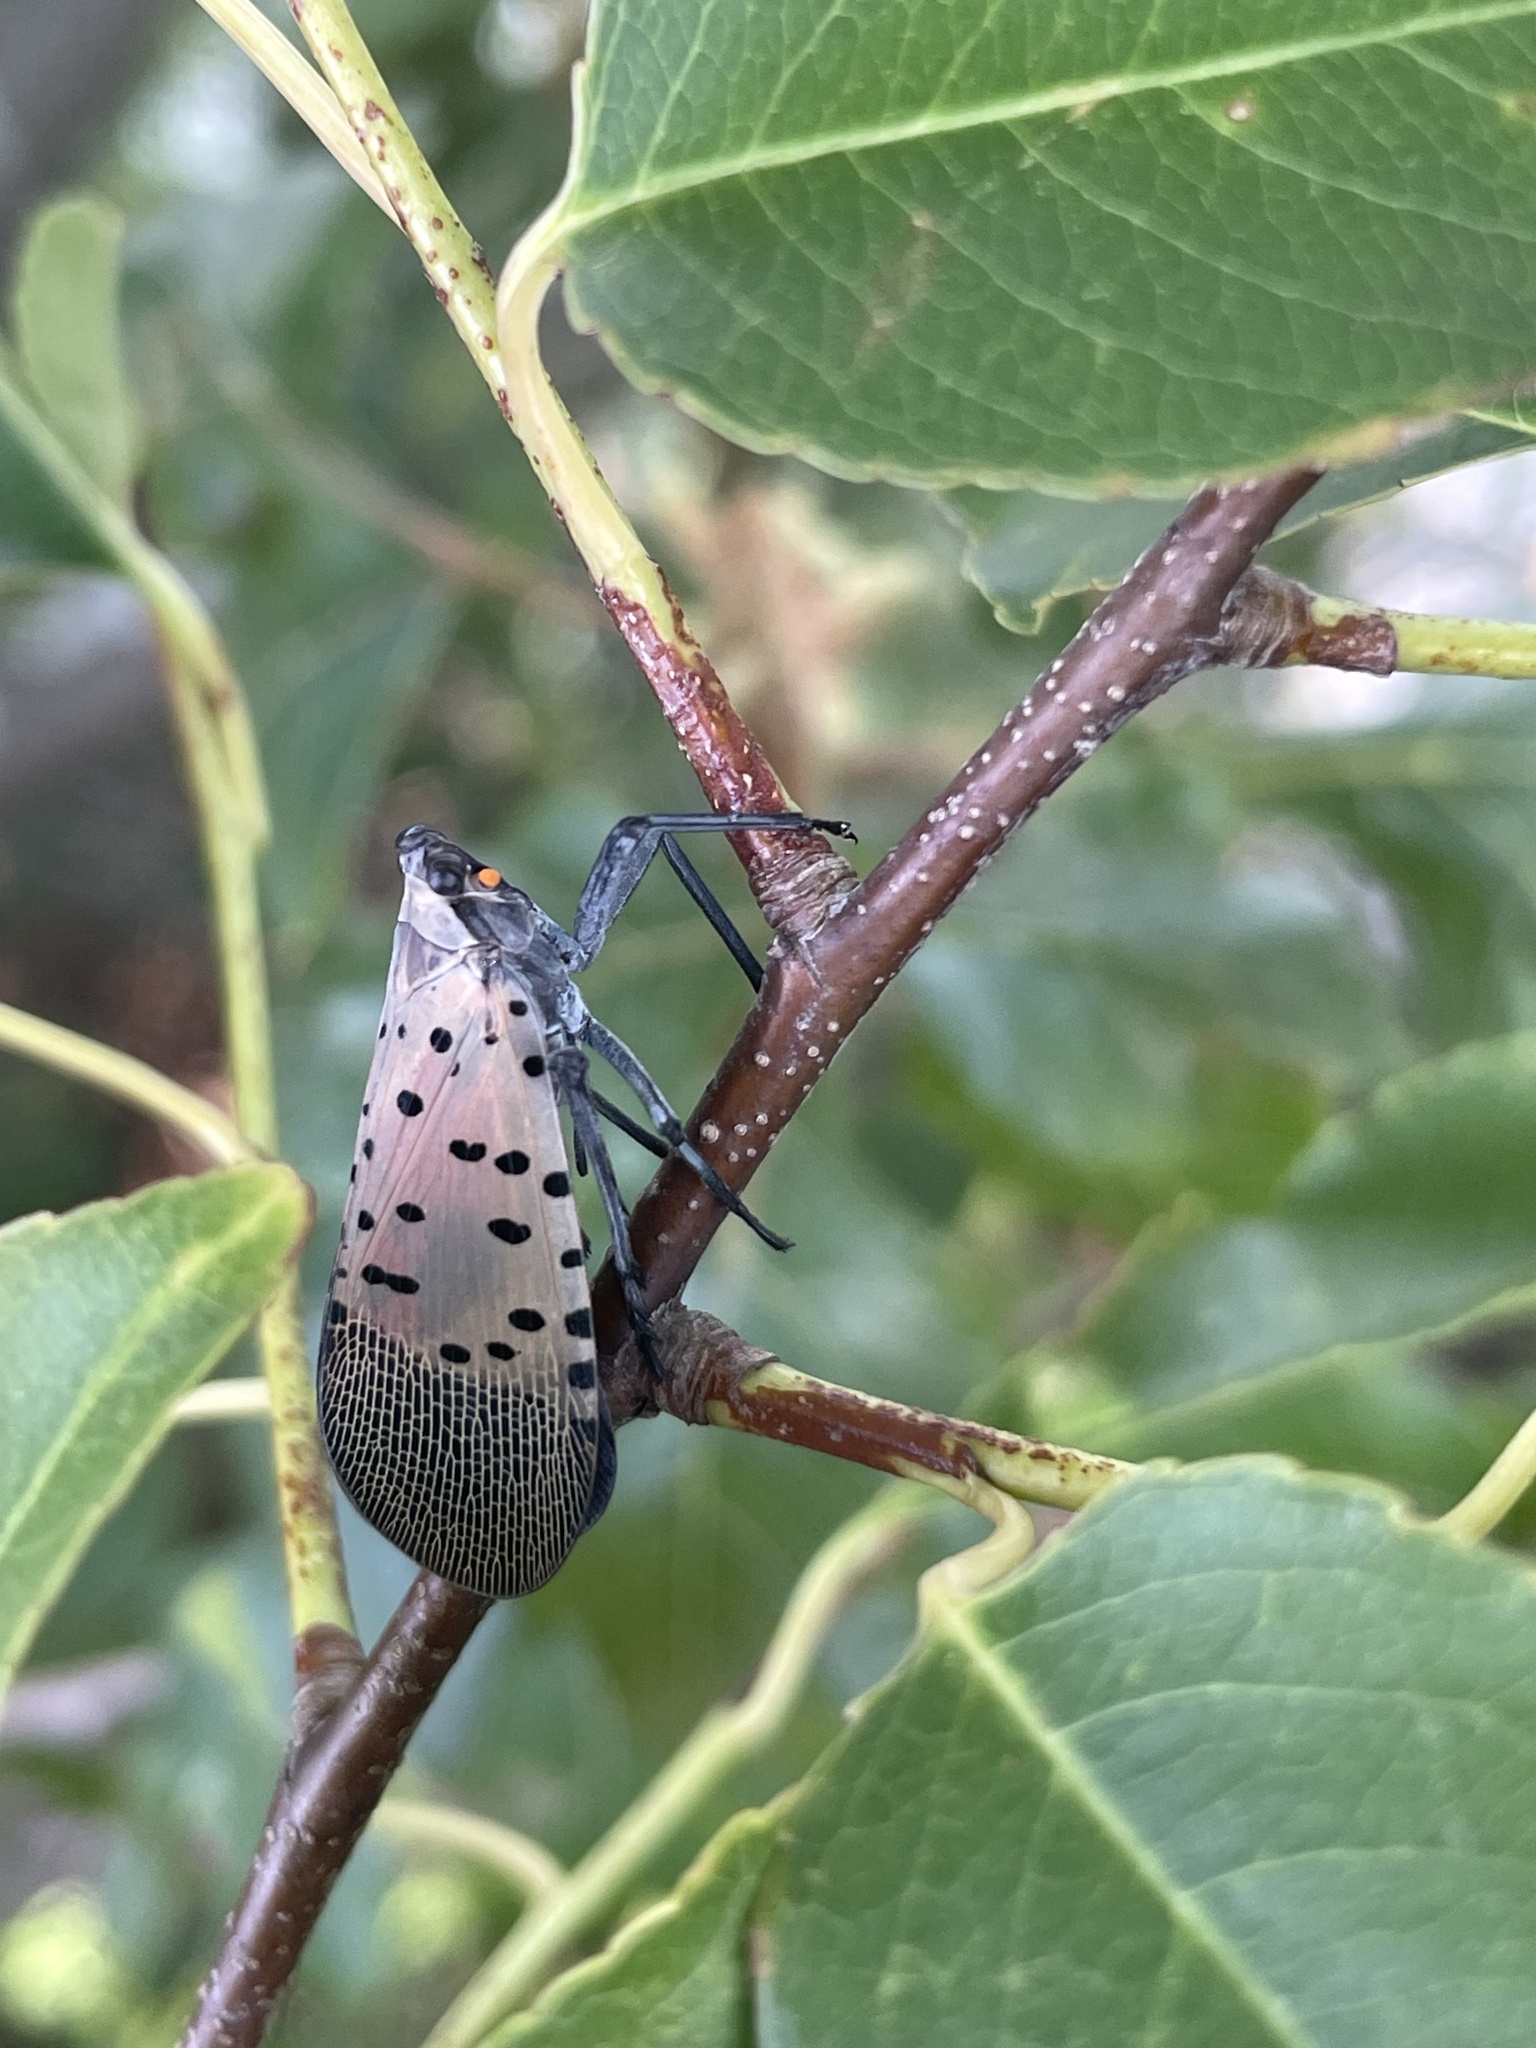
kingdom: Animalia
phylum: Arthropoda
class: Insecta
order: Hemiptera
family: Fulgoridae
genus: Lycorma
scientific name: Lycorma delicatula
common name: Spotted lanternfly
